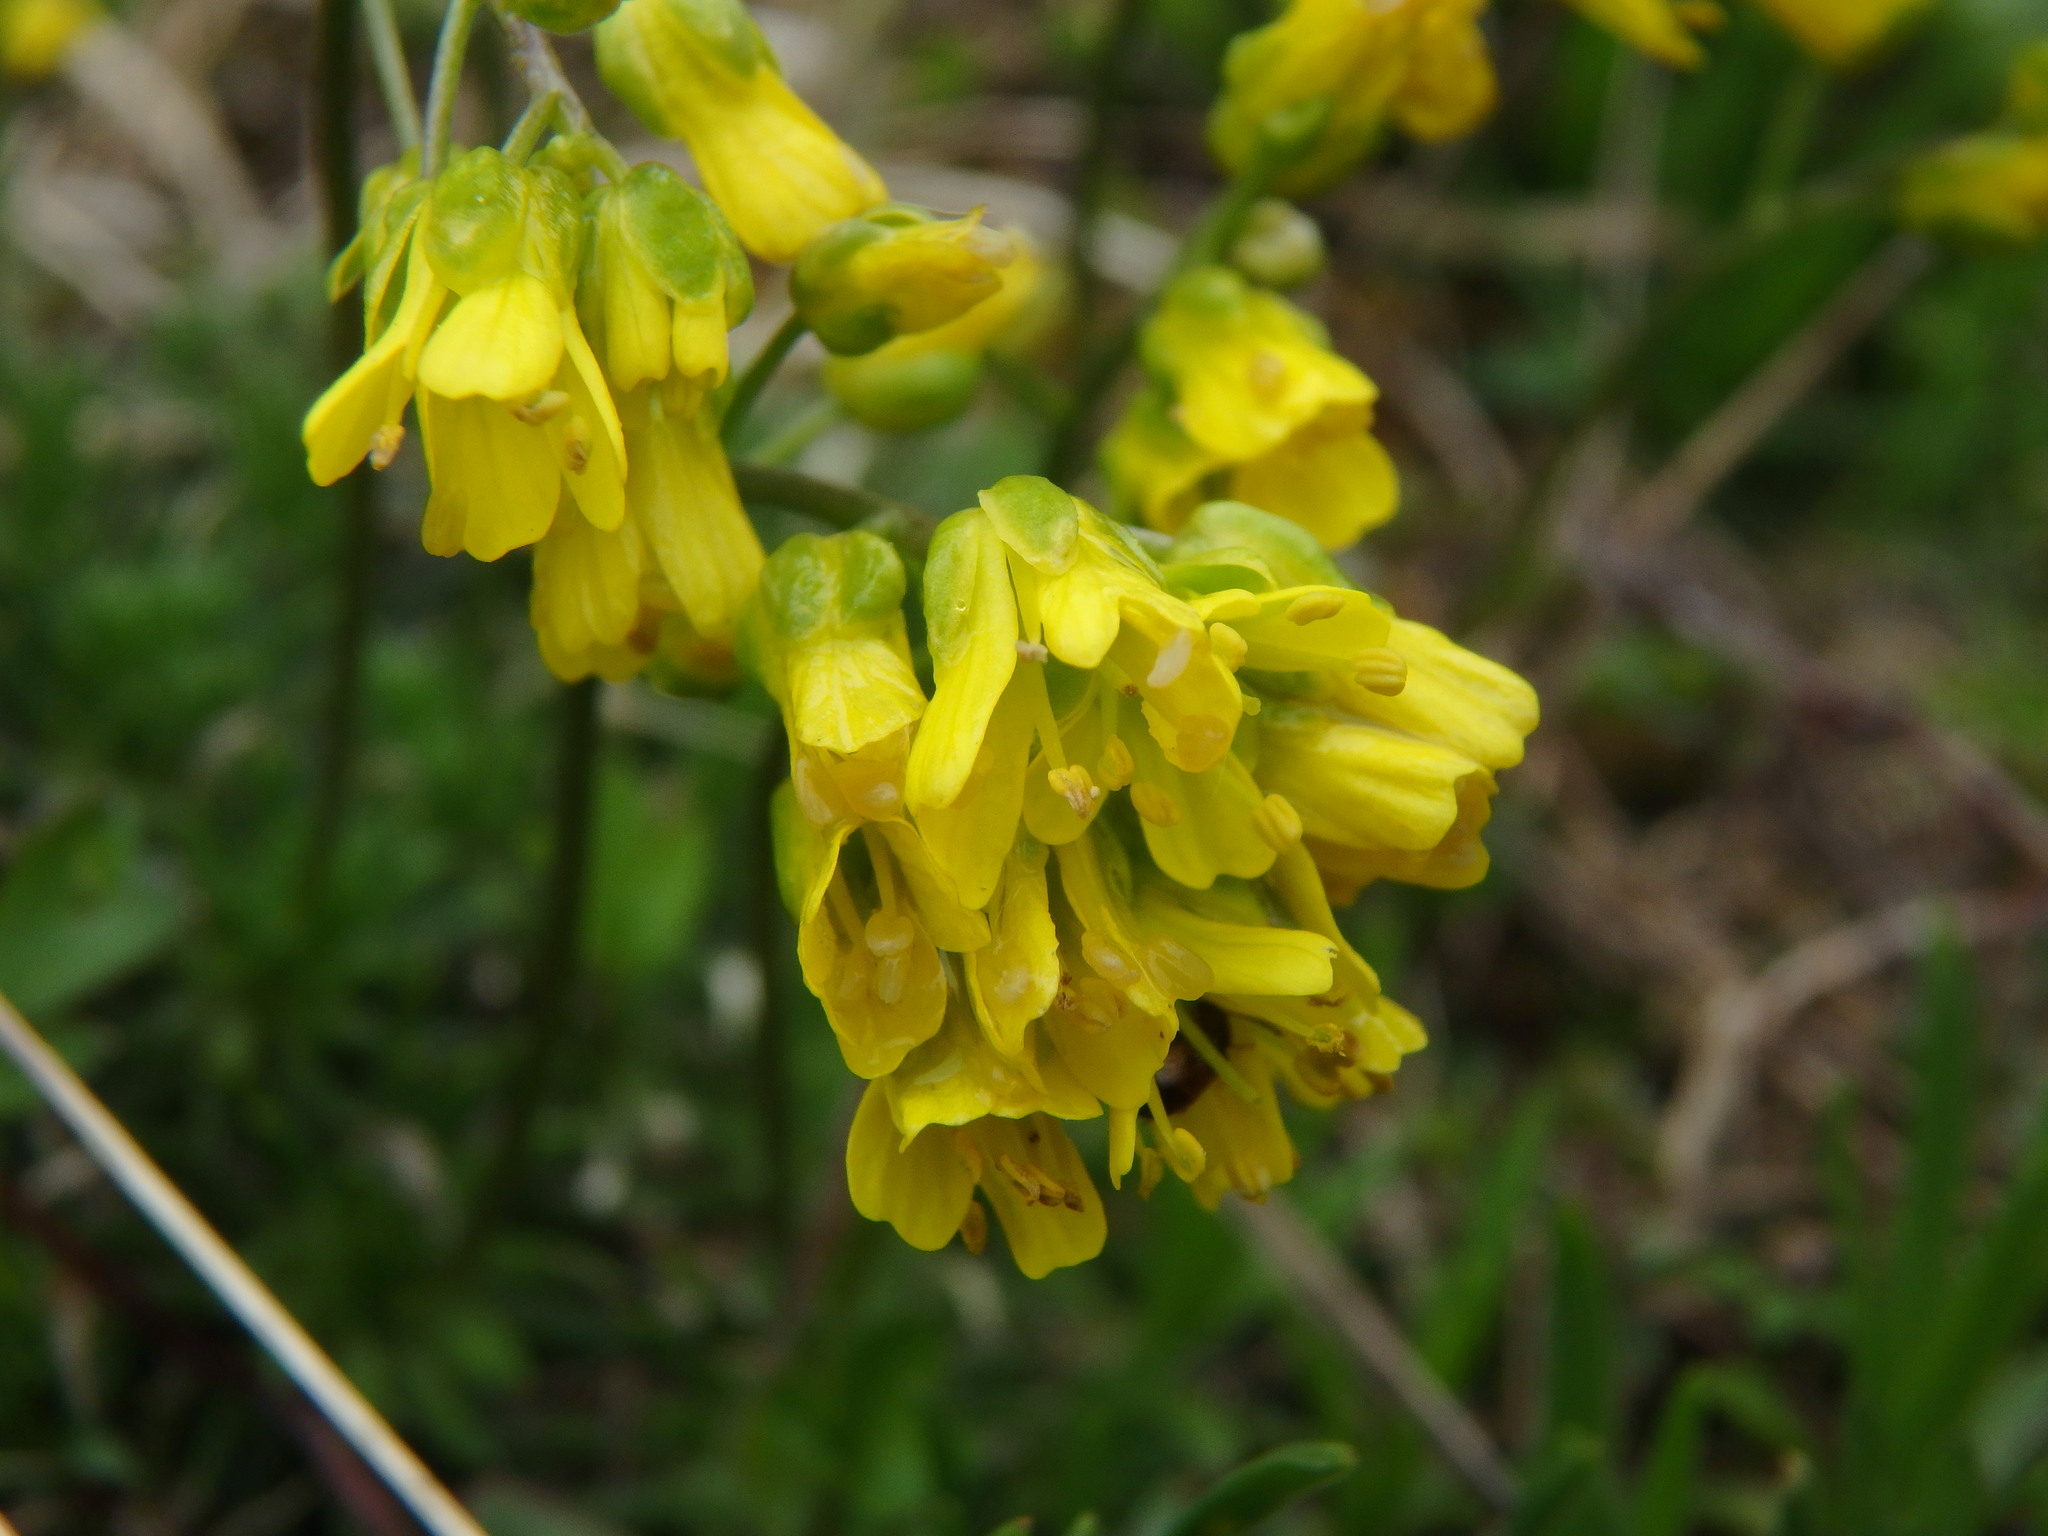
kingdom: Plantae
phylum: Tracheophyta
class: Magnoliopsida
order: Brassicales
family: Brassicaceae
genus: Draba
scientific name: Draba aizoides
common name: Yellow whitlowgrass
